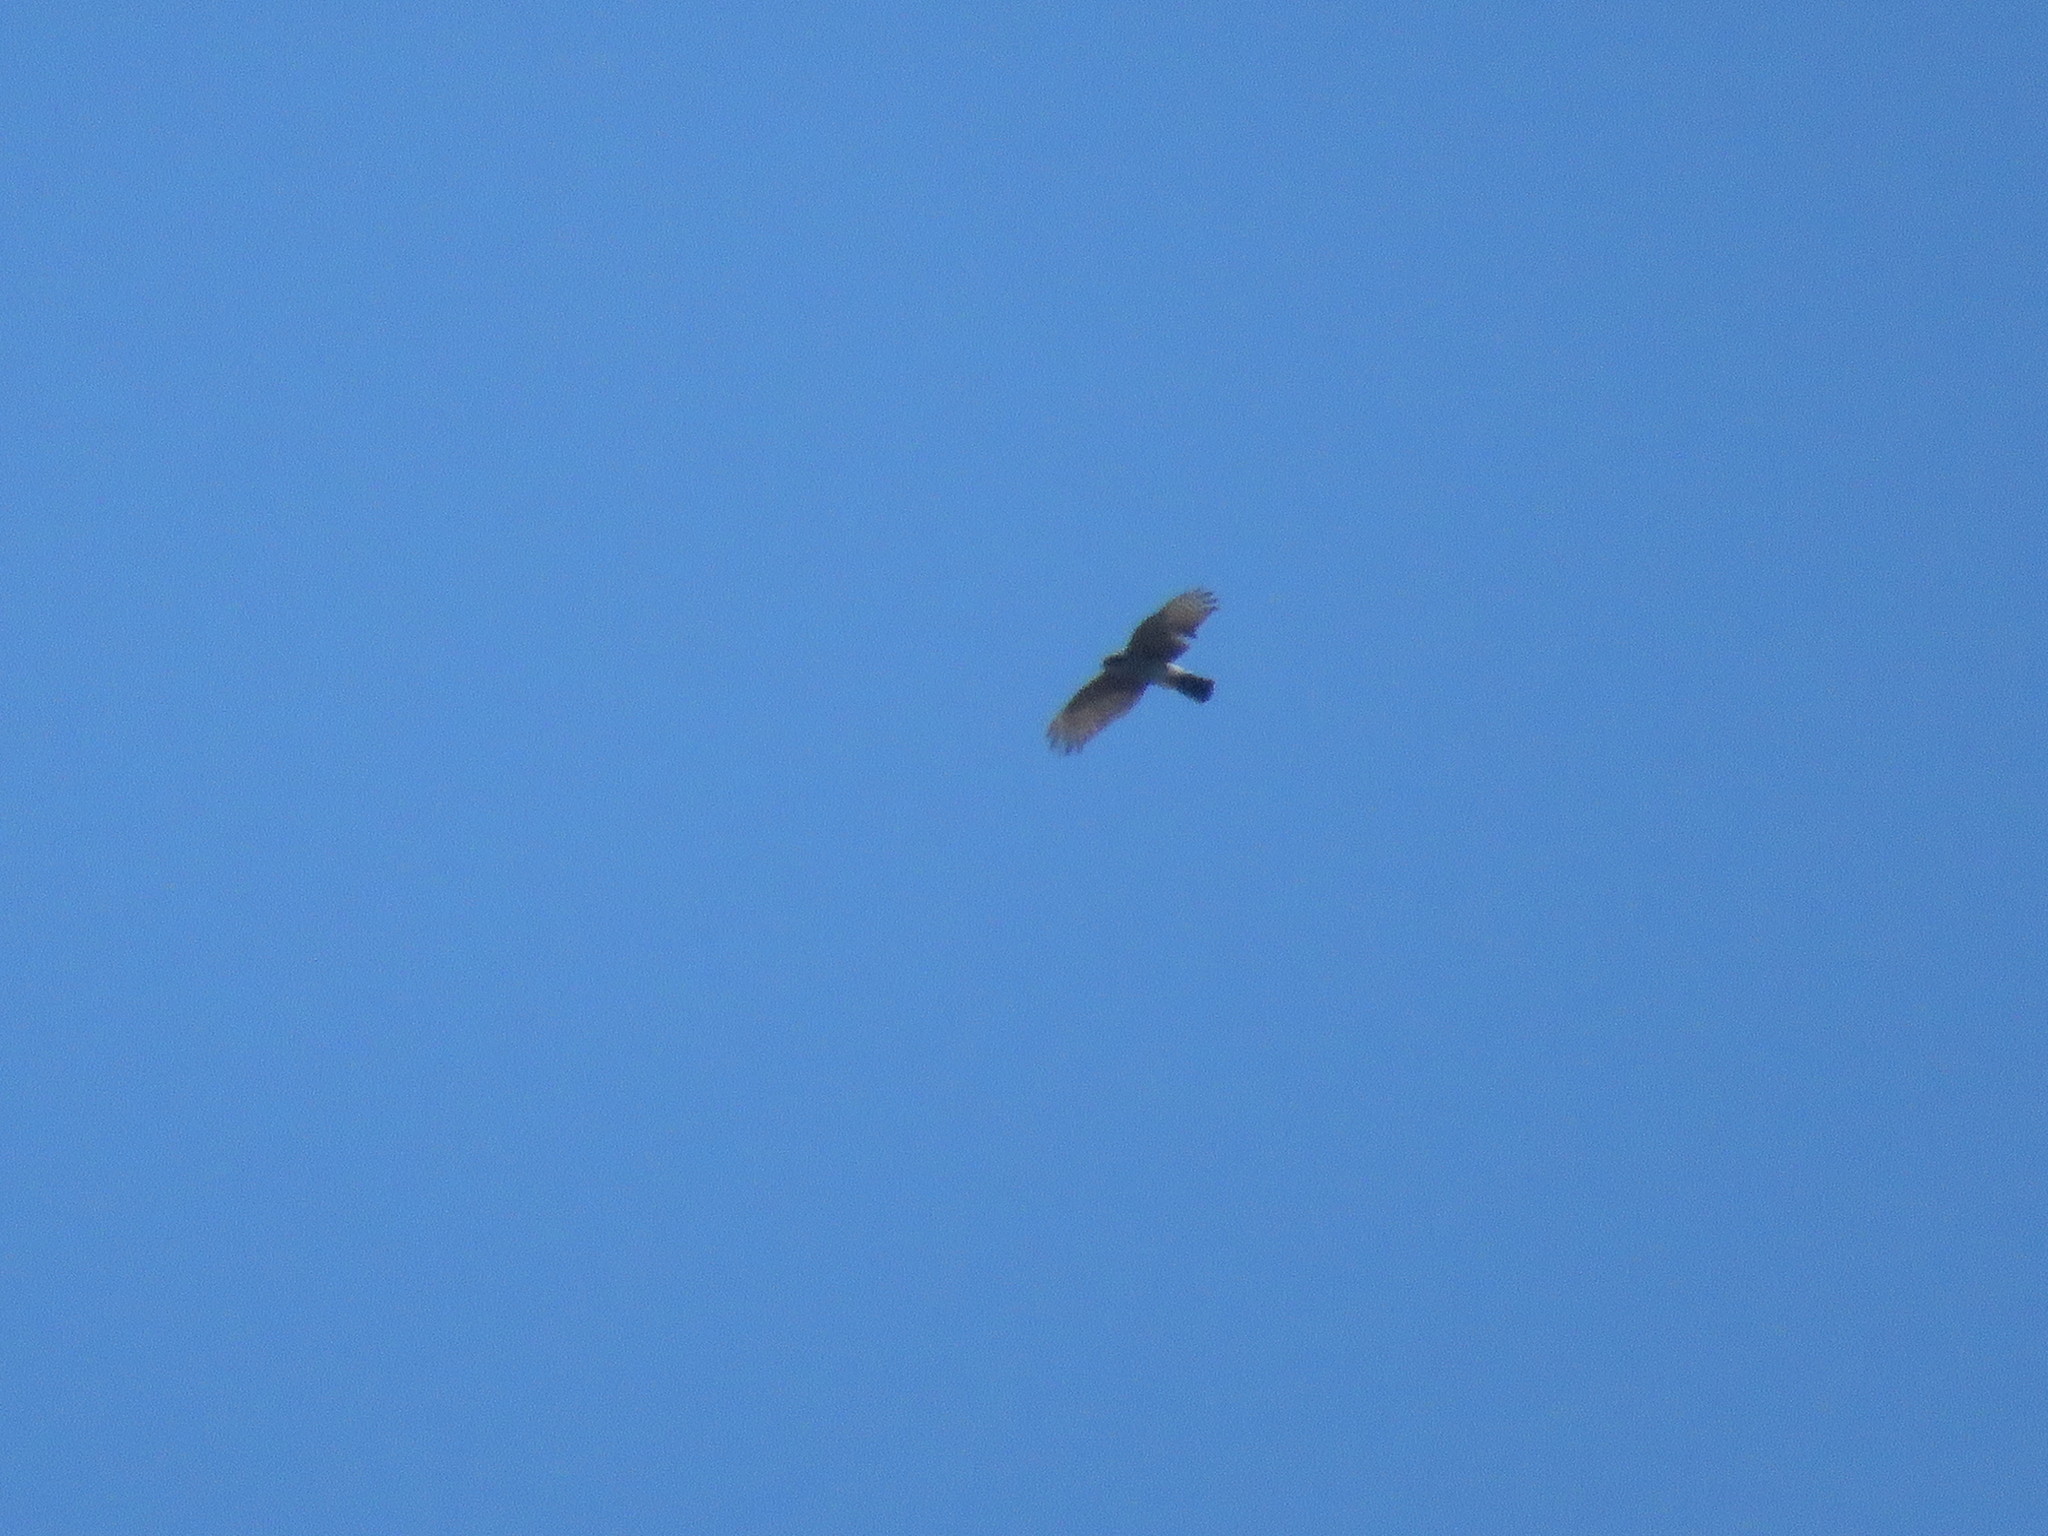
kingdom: Animalia
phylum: Chordata
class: Aves
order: Accipitriformes
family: Accipitridae
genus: Accipiter
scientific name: Accipiter striatus
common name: Sharp-shinned hawk
